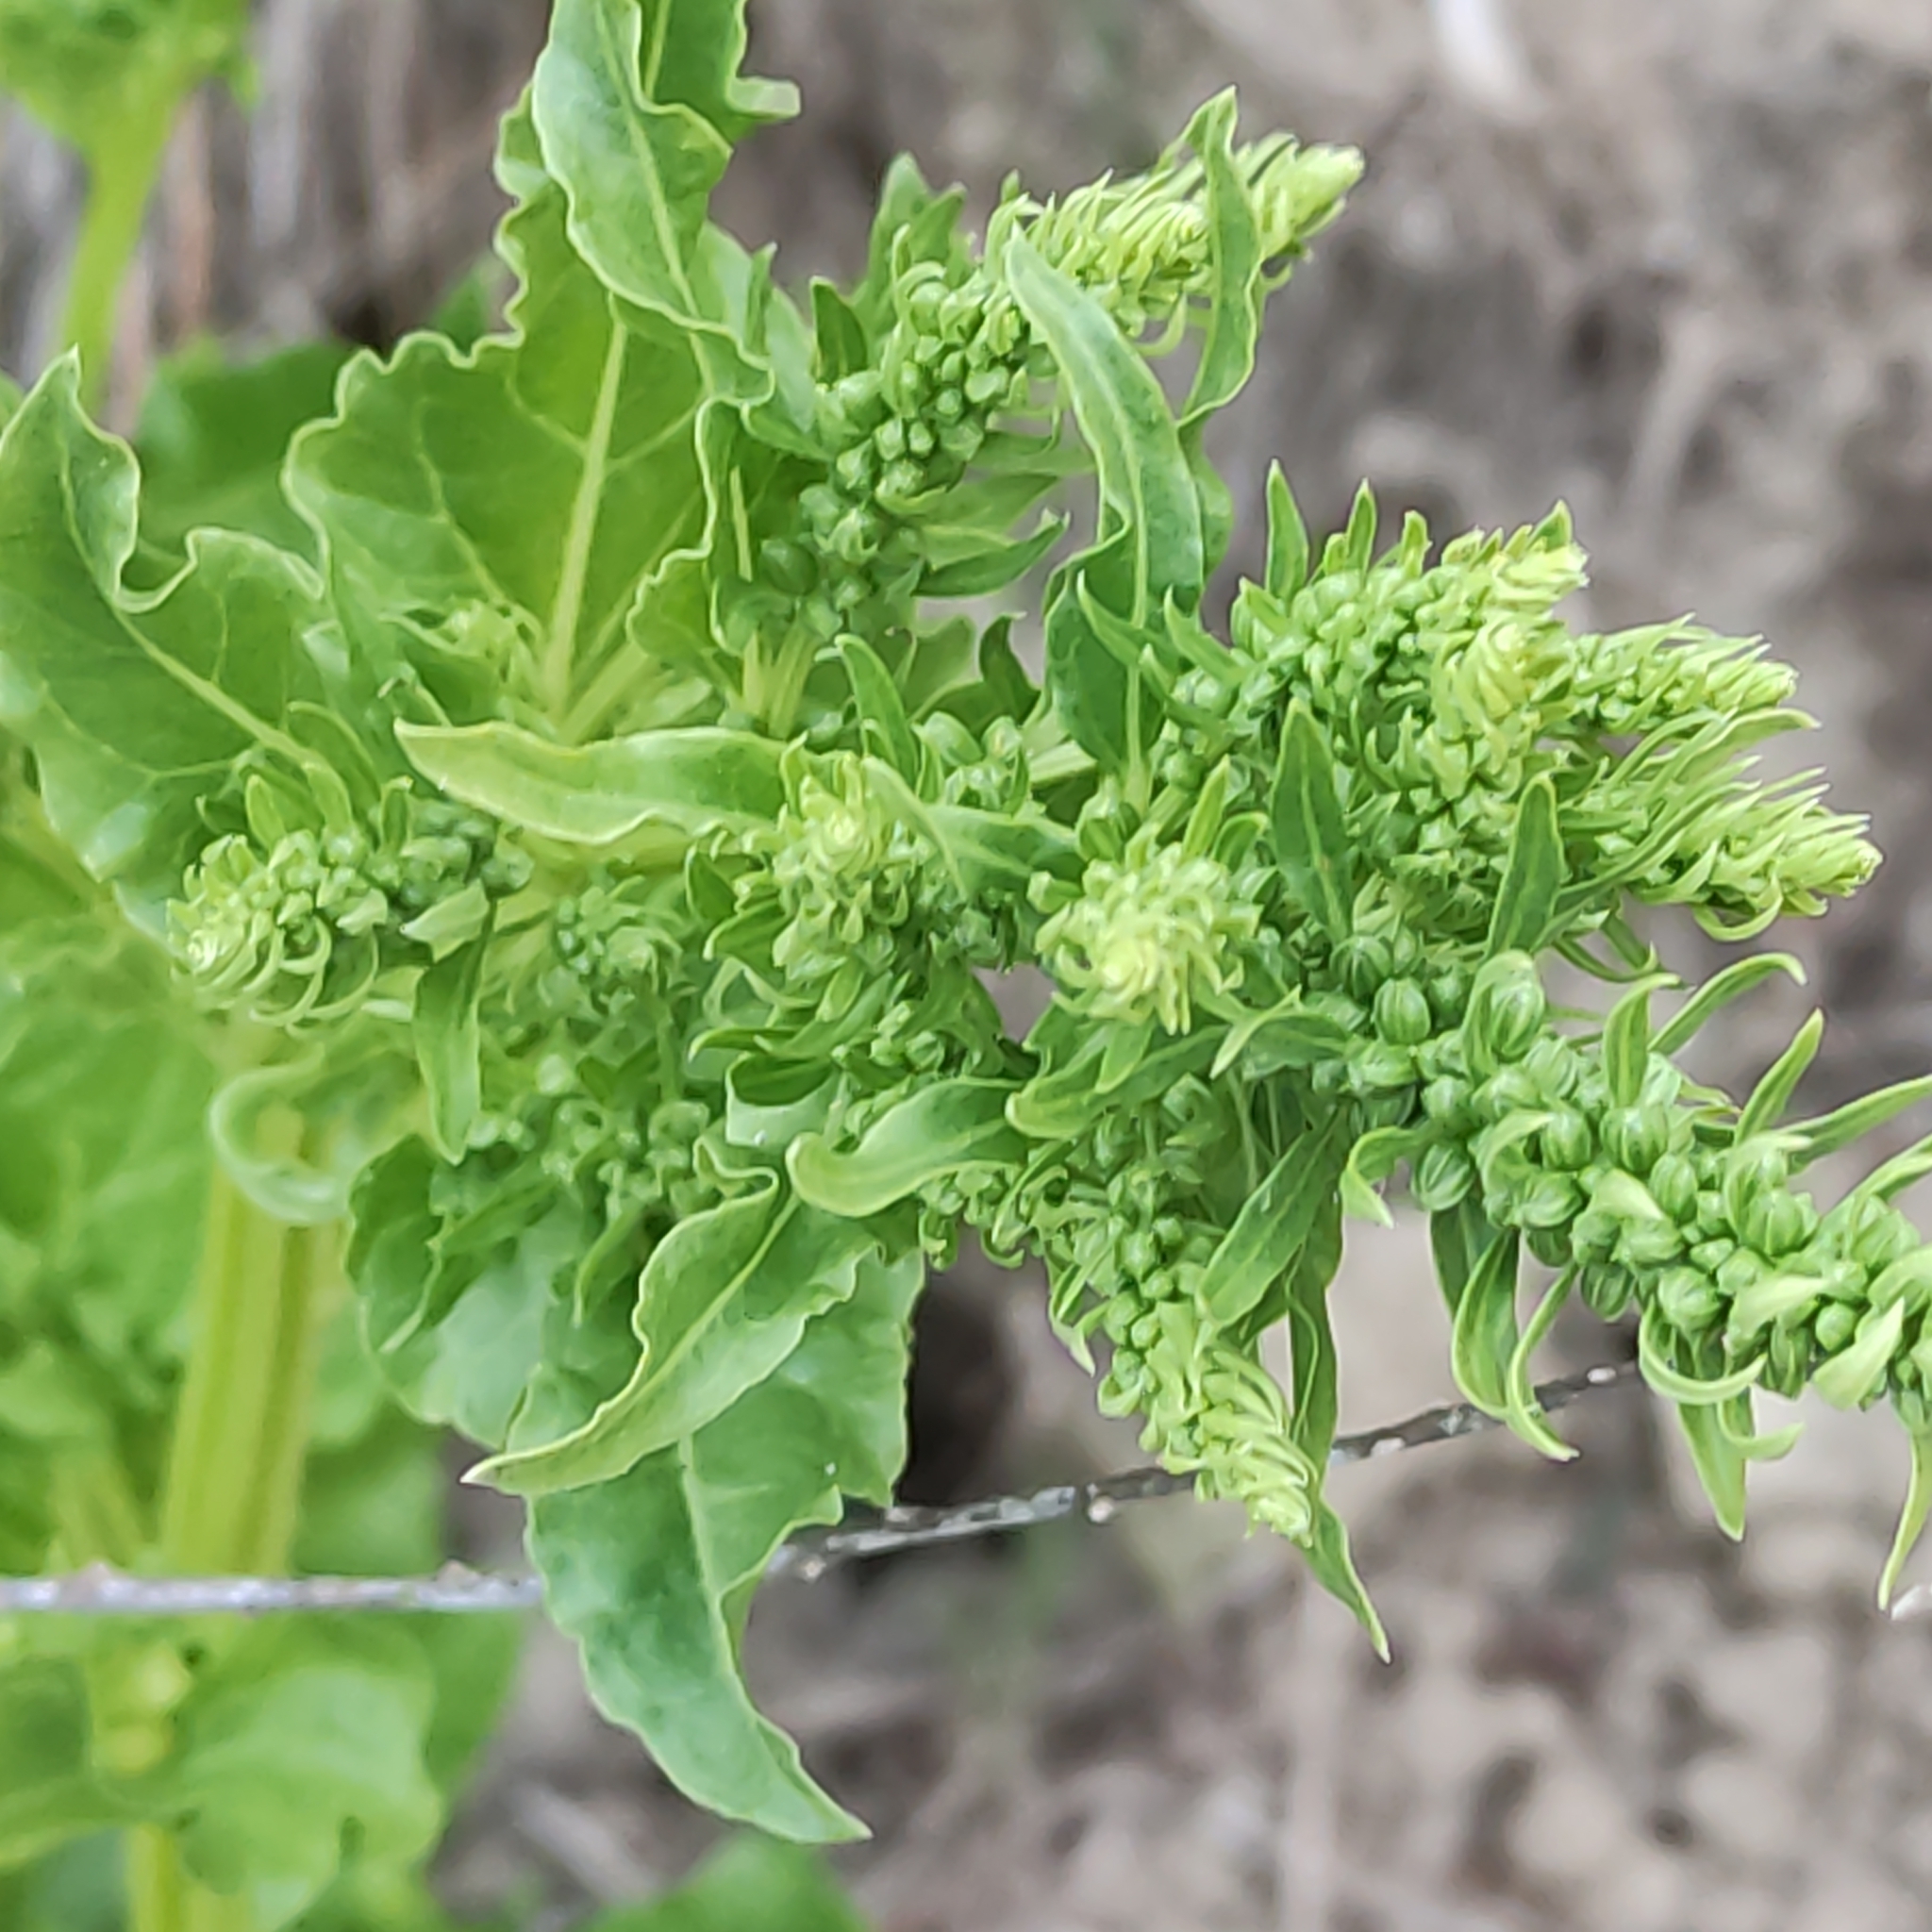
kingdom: Plantae
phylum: Tracheophyta
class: Magnoliopsida
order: Caryophyllales
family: Amaranthaceae
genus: Beta
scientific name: Beta vulgaris
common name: Beet
